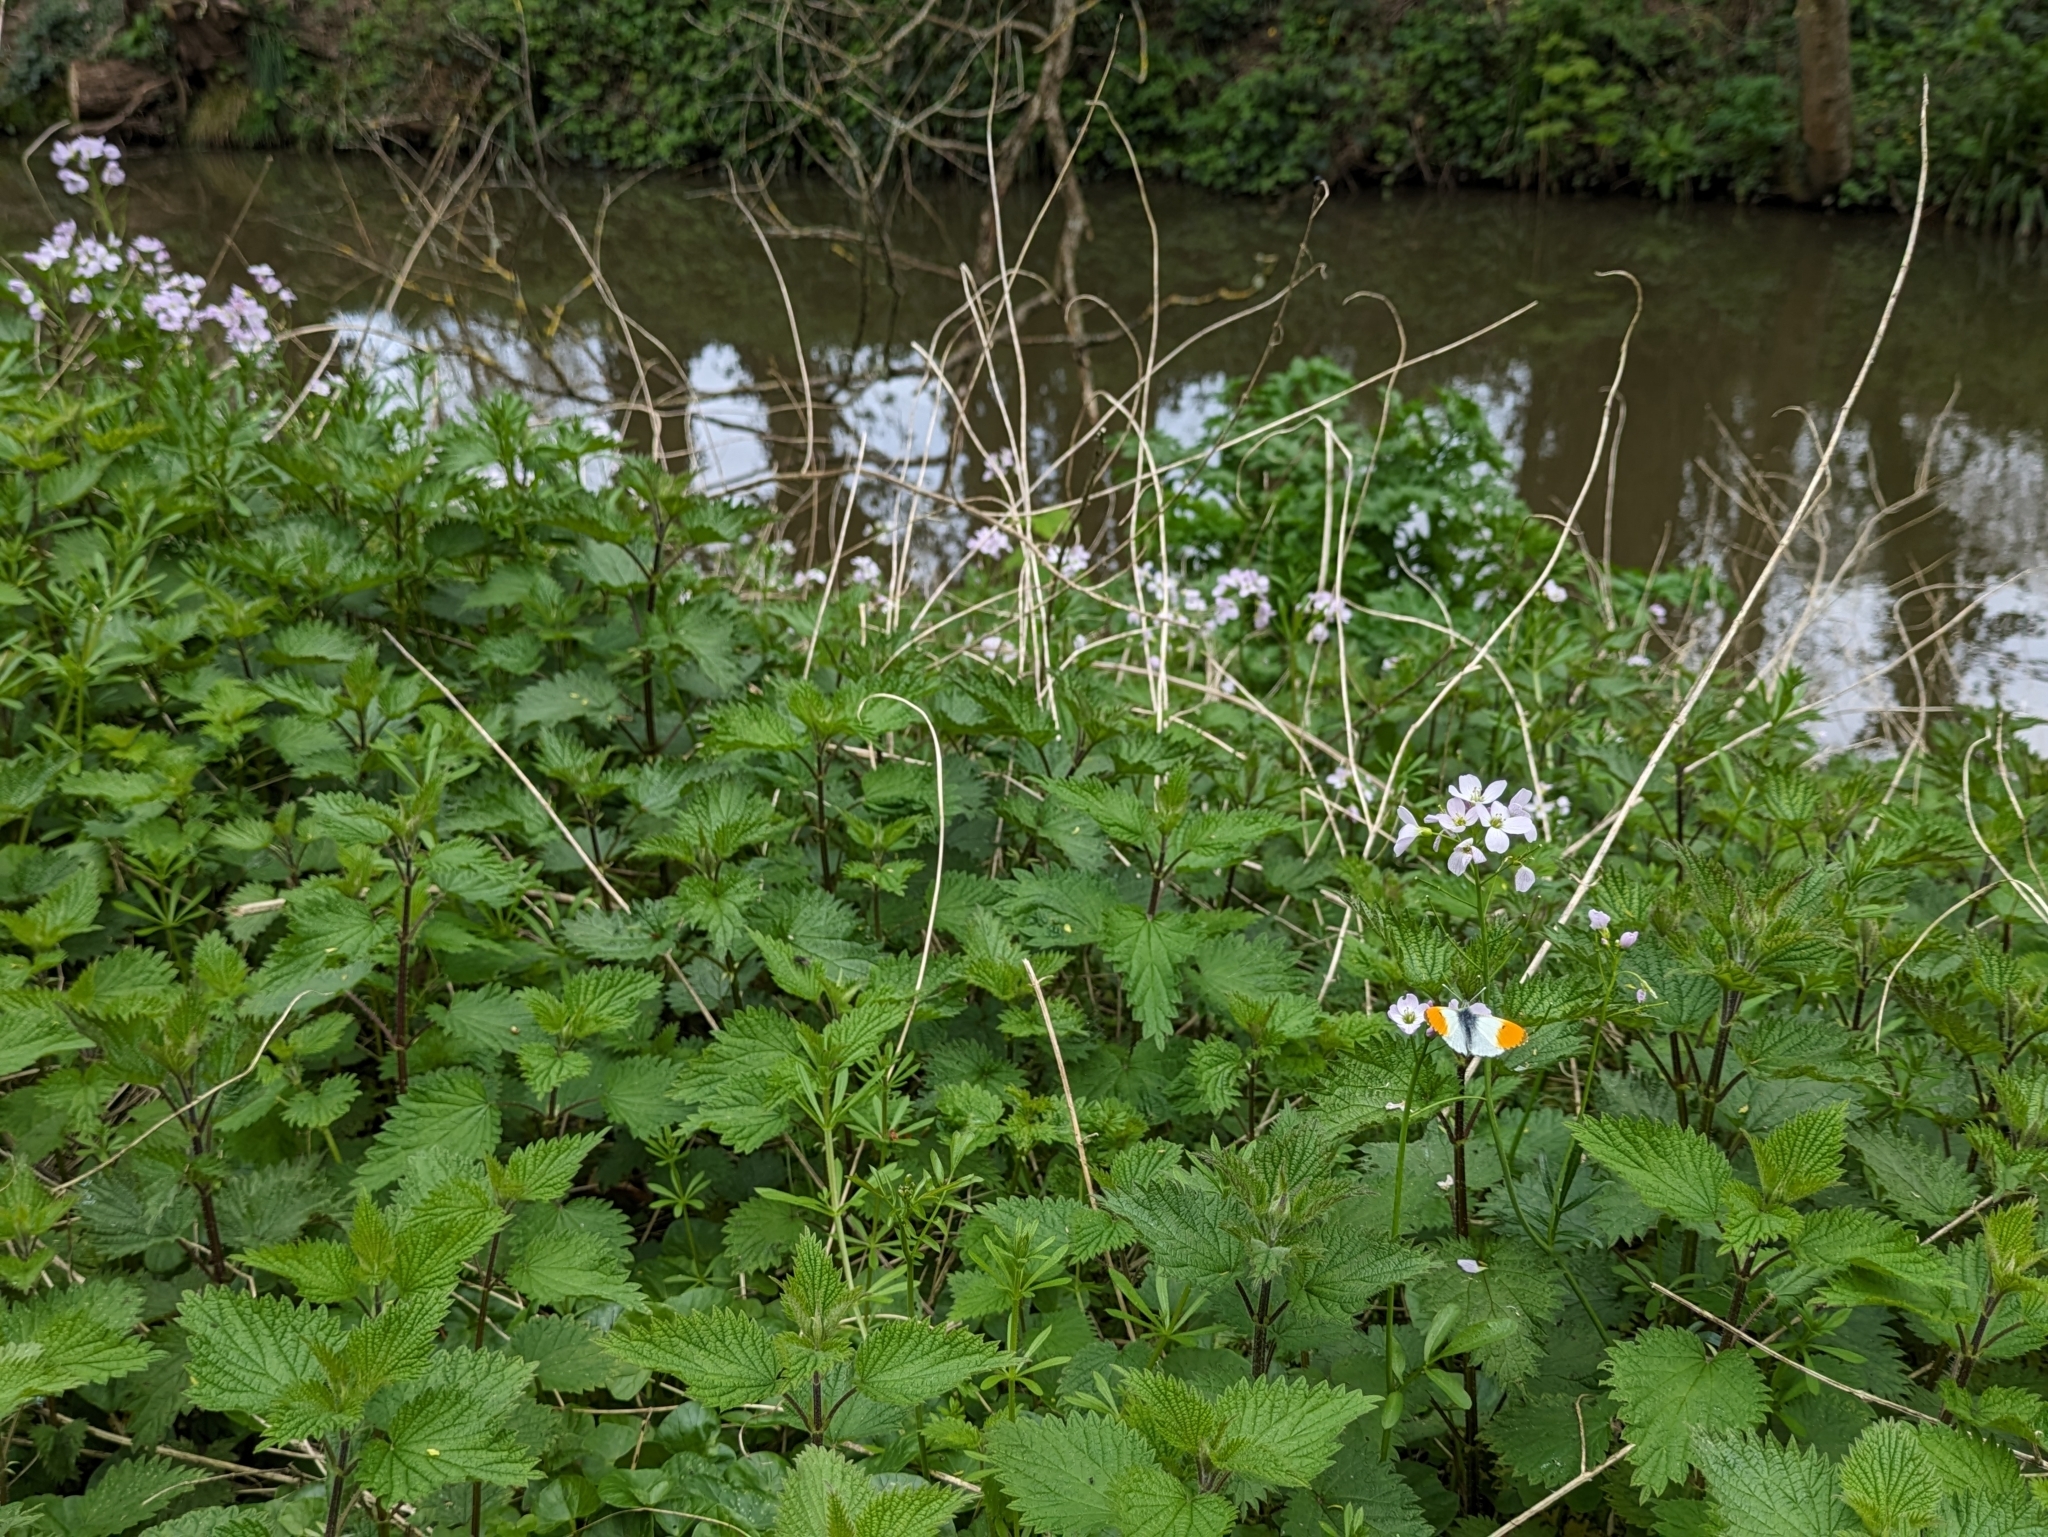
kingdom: Animalia
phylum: Arthropoda
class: Insecta
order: Lepidoptera
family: Pieridae
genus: Anthocharis
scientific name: Anthocharis cardamines
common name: Orange-tip
